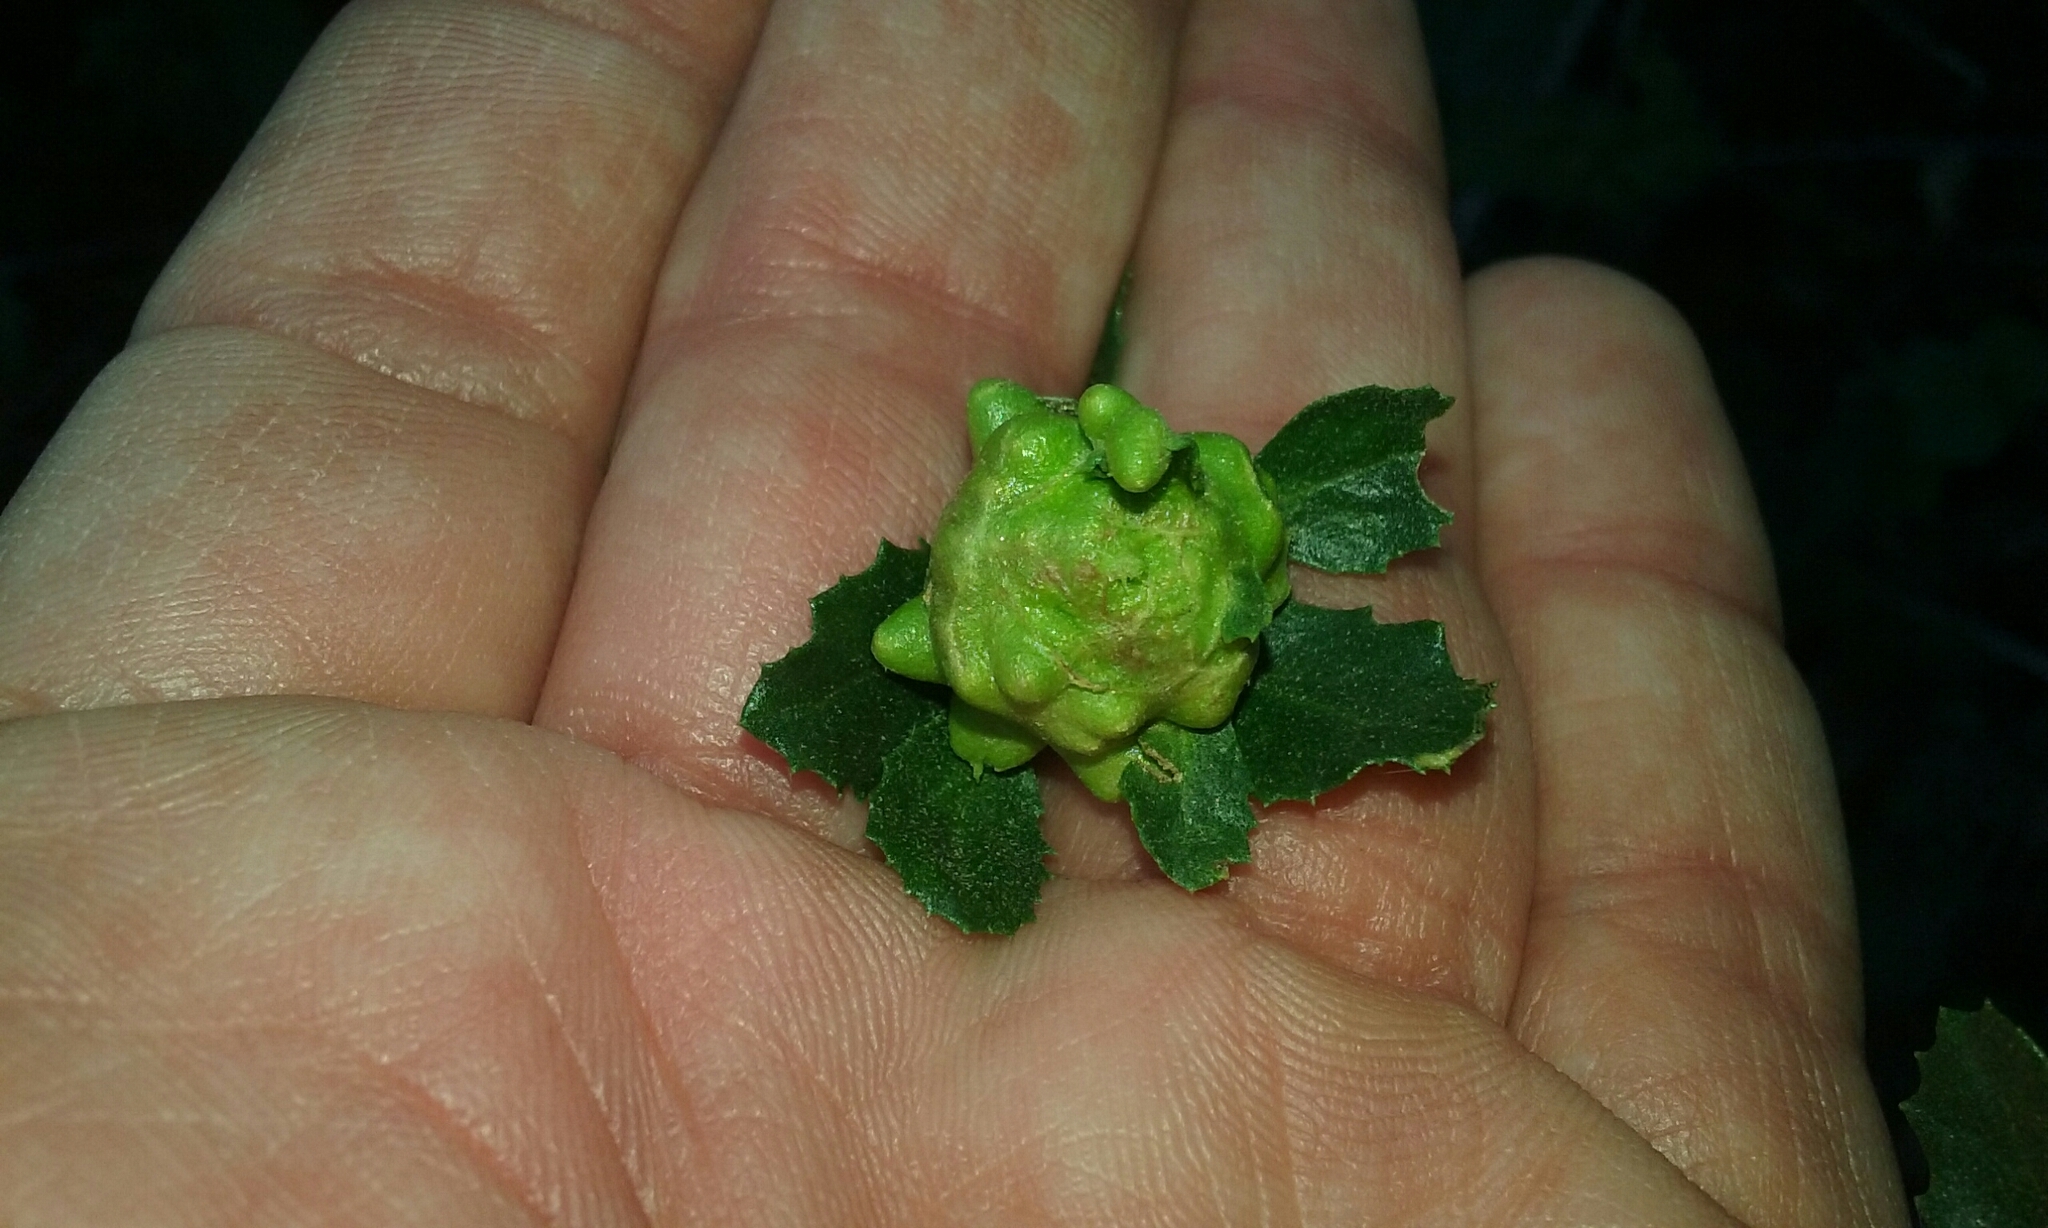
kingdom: Animalia
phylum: Arthropoda
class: Insecta
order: Diptera
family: Cecidomyiidae
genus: Rhopalomyia
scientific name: Rhopalomyia californica
